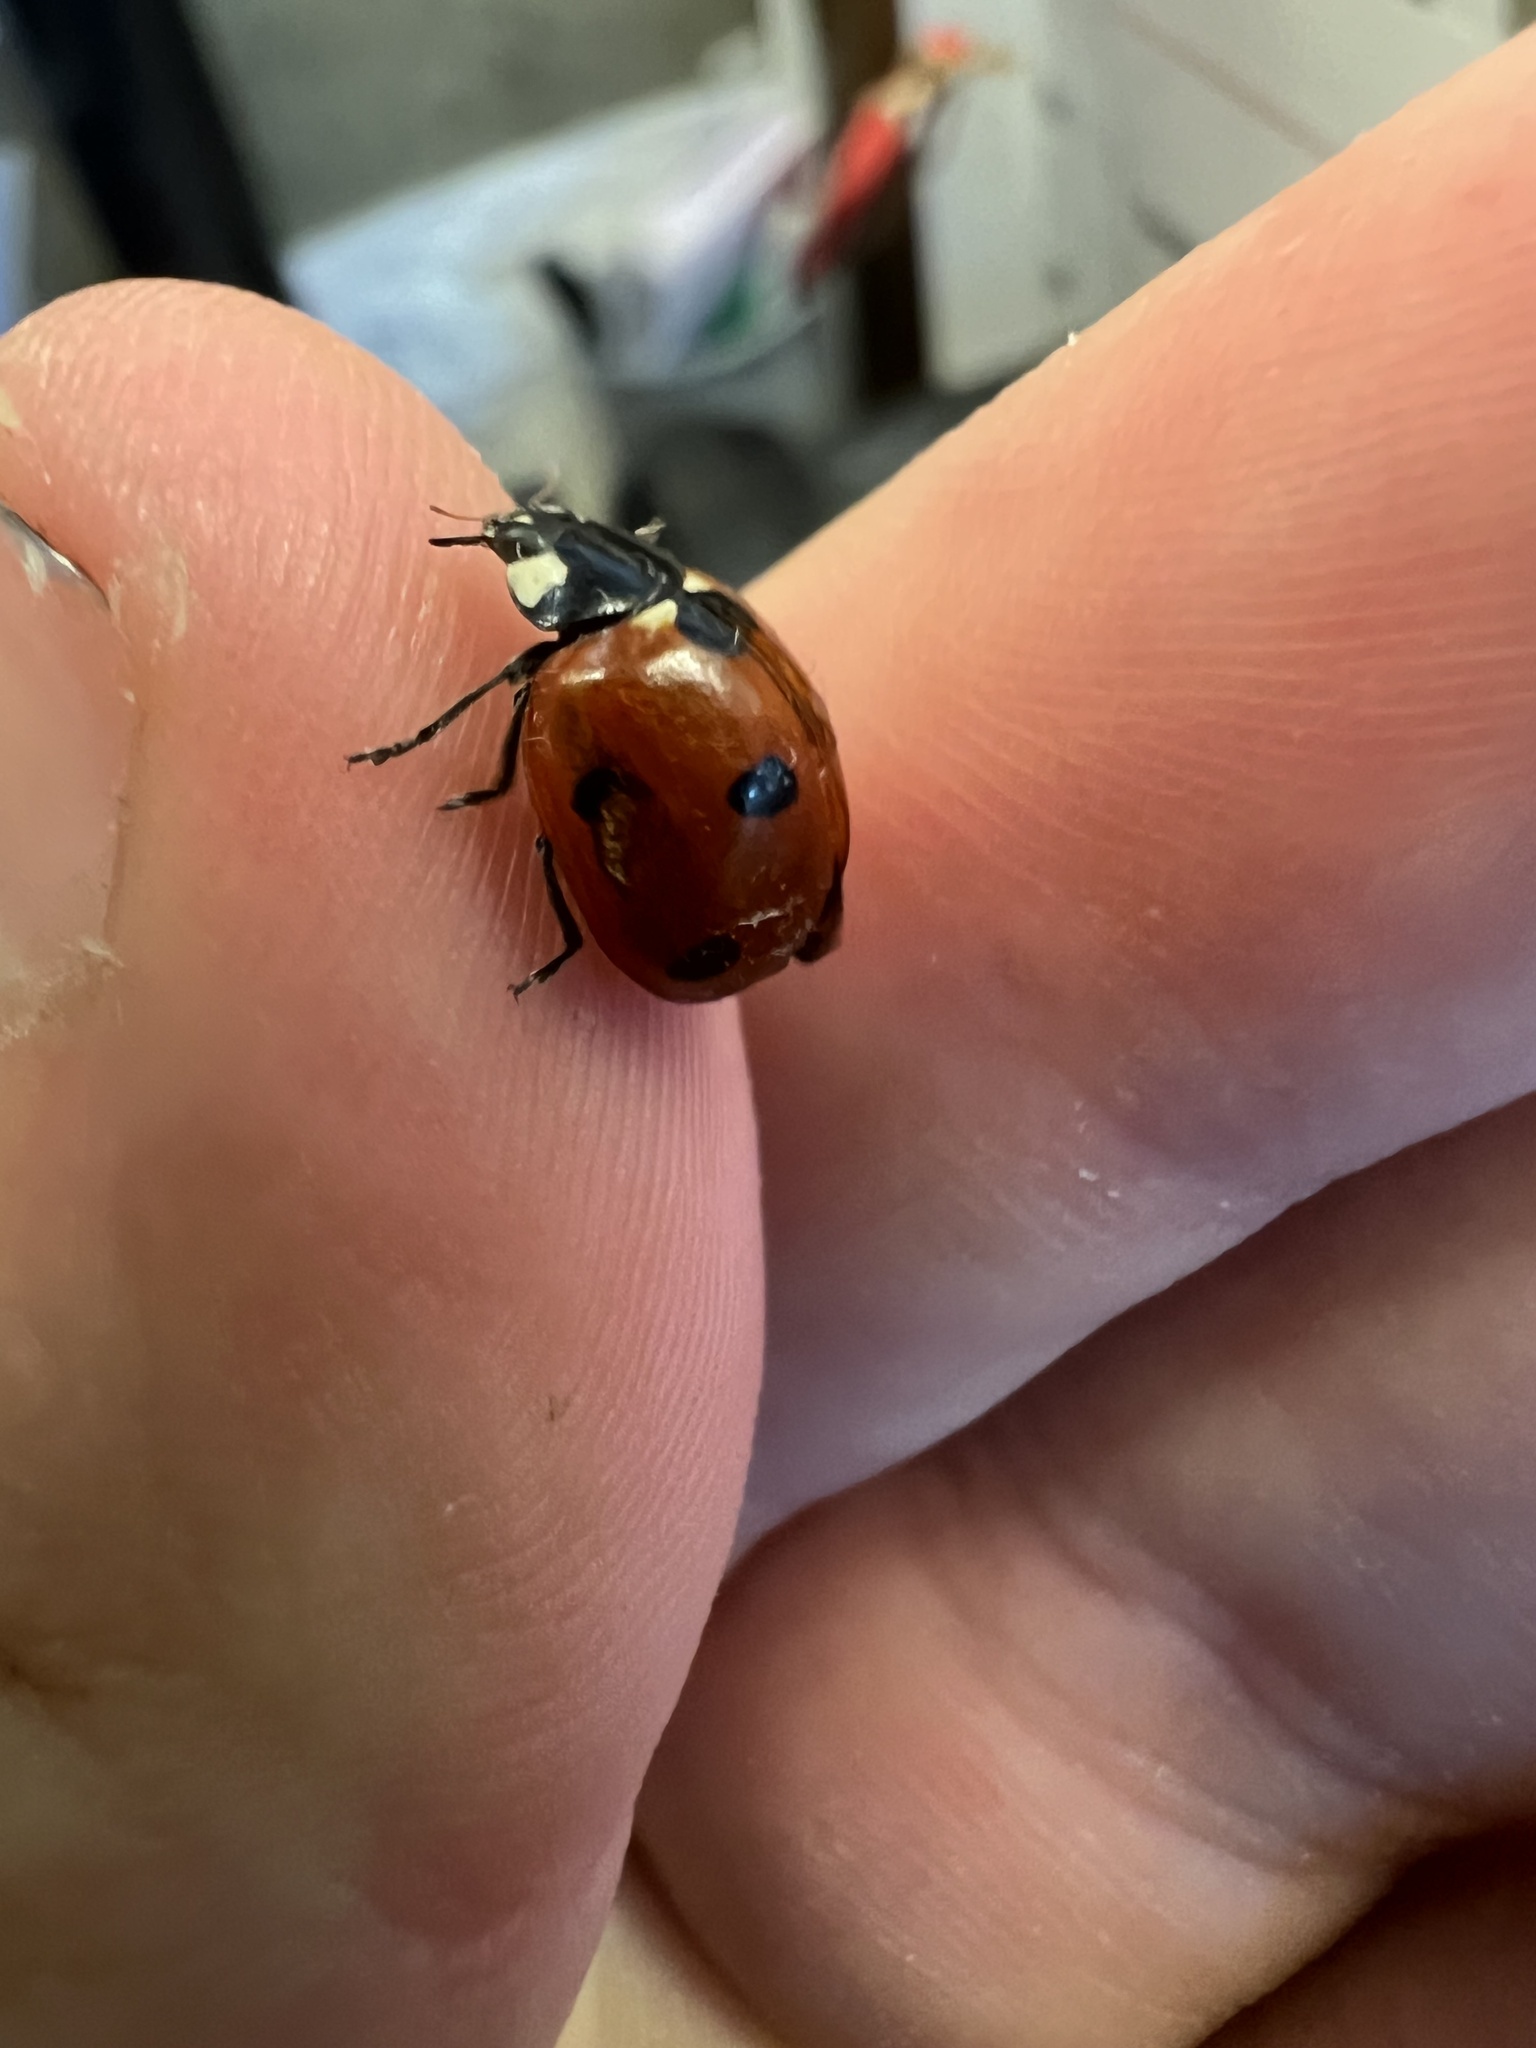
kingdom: Animalia
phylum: Arthropoda
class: Insecta
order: Coleoptera
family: Coccinellidae
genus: Coccinella
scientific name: Coccinella septempunctata
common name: Sevenspotted lady beetle
